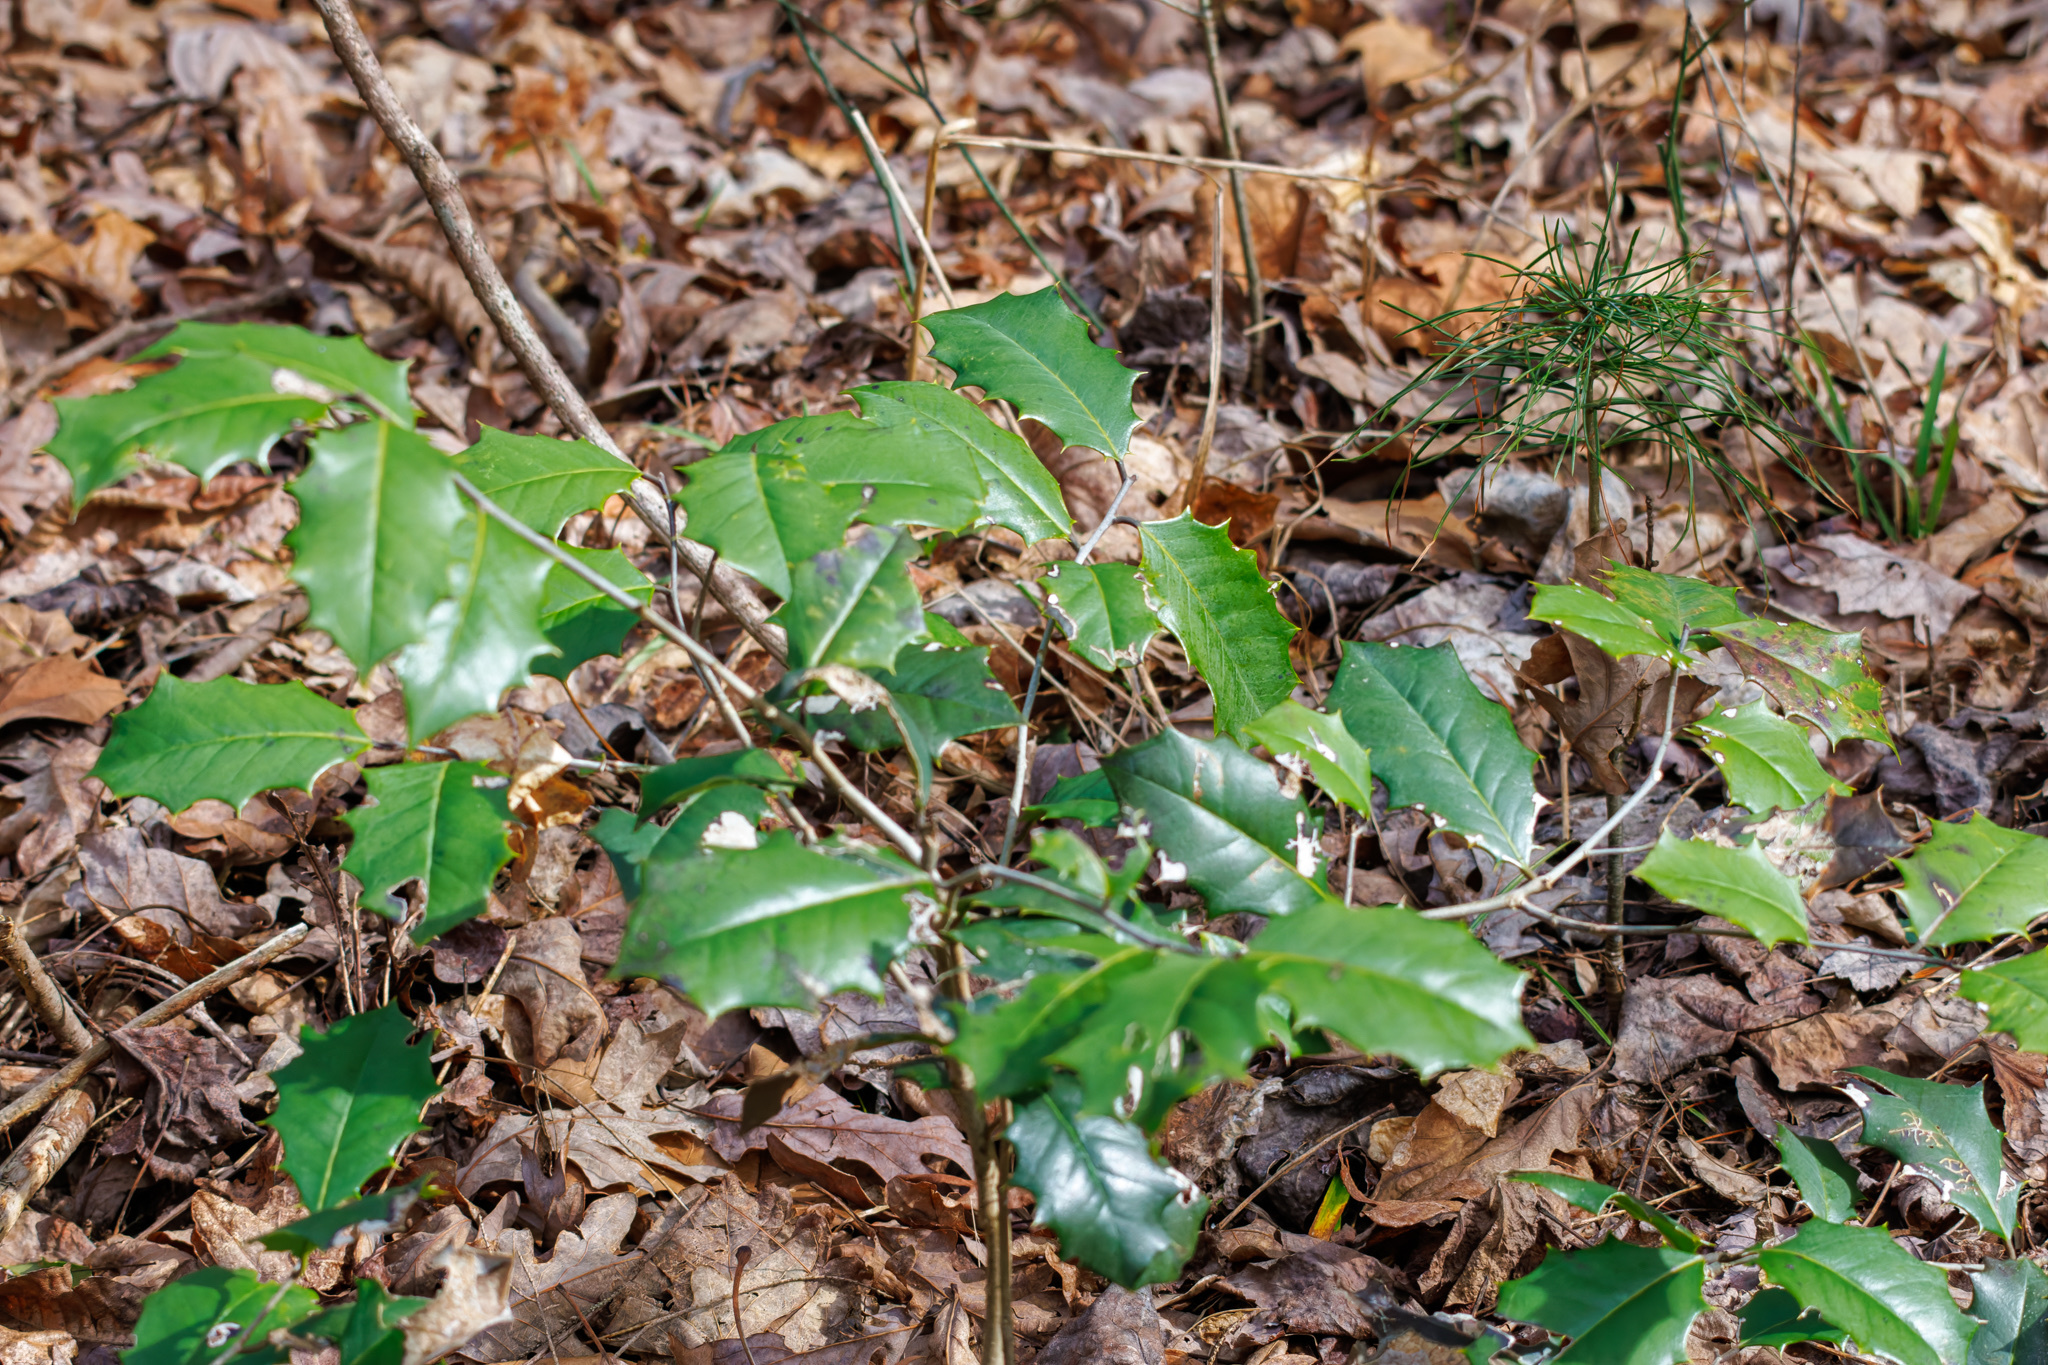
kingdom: Plantae
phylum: Tracheophyta
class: Magnoliopsida
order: Aquifoliales
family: Aquifoliaceae
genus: Ilex
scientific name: Ilex opaca
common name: American holly
